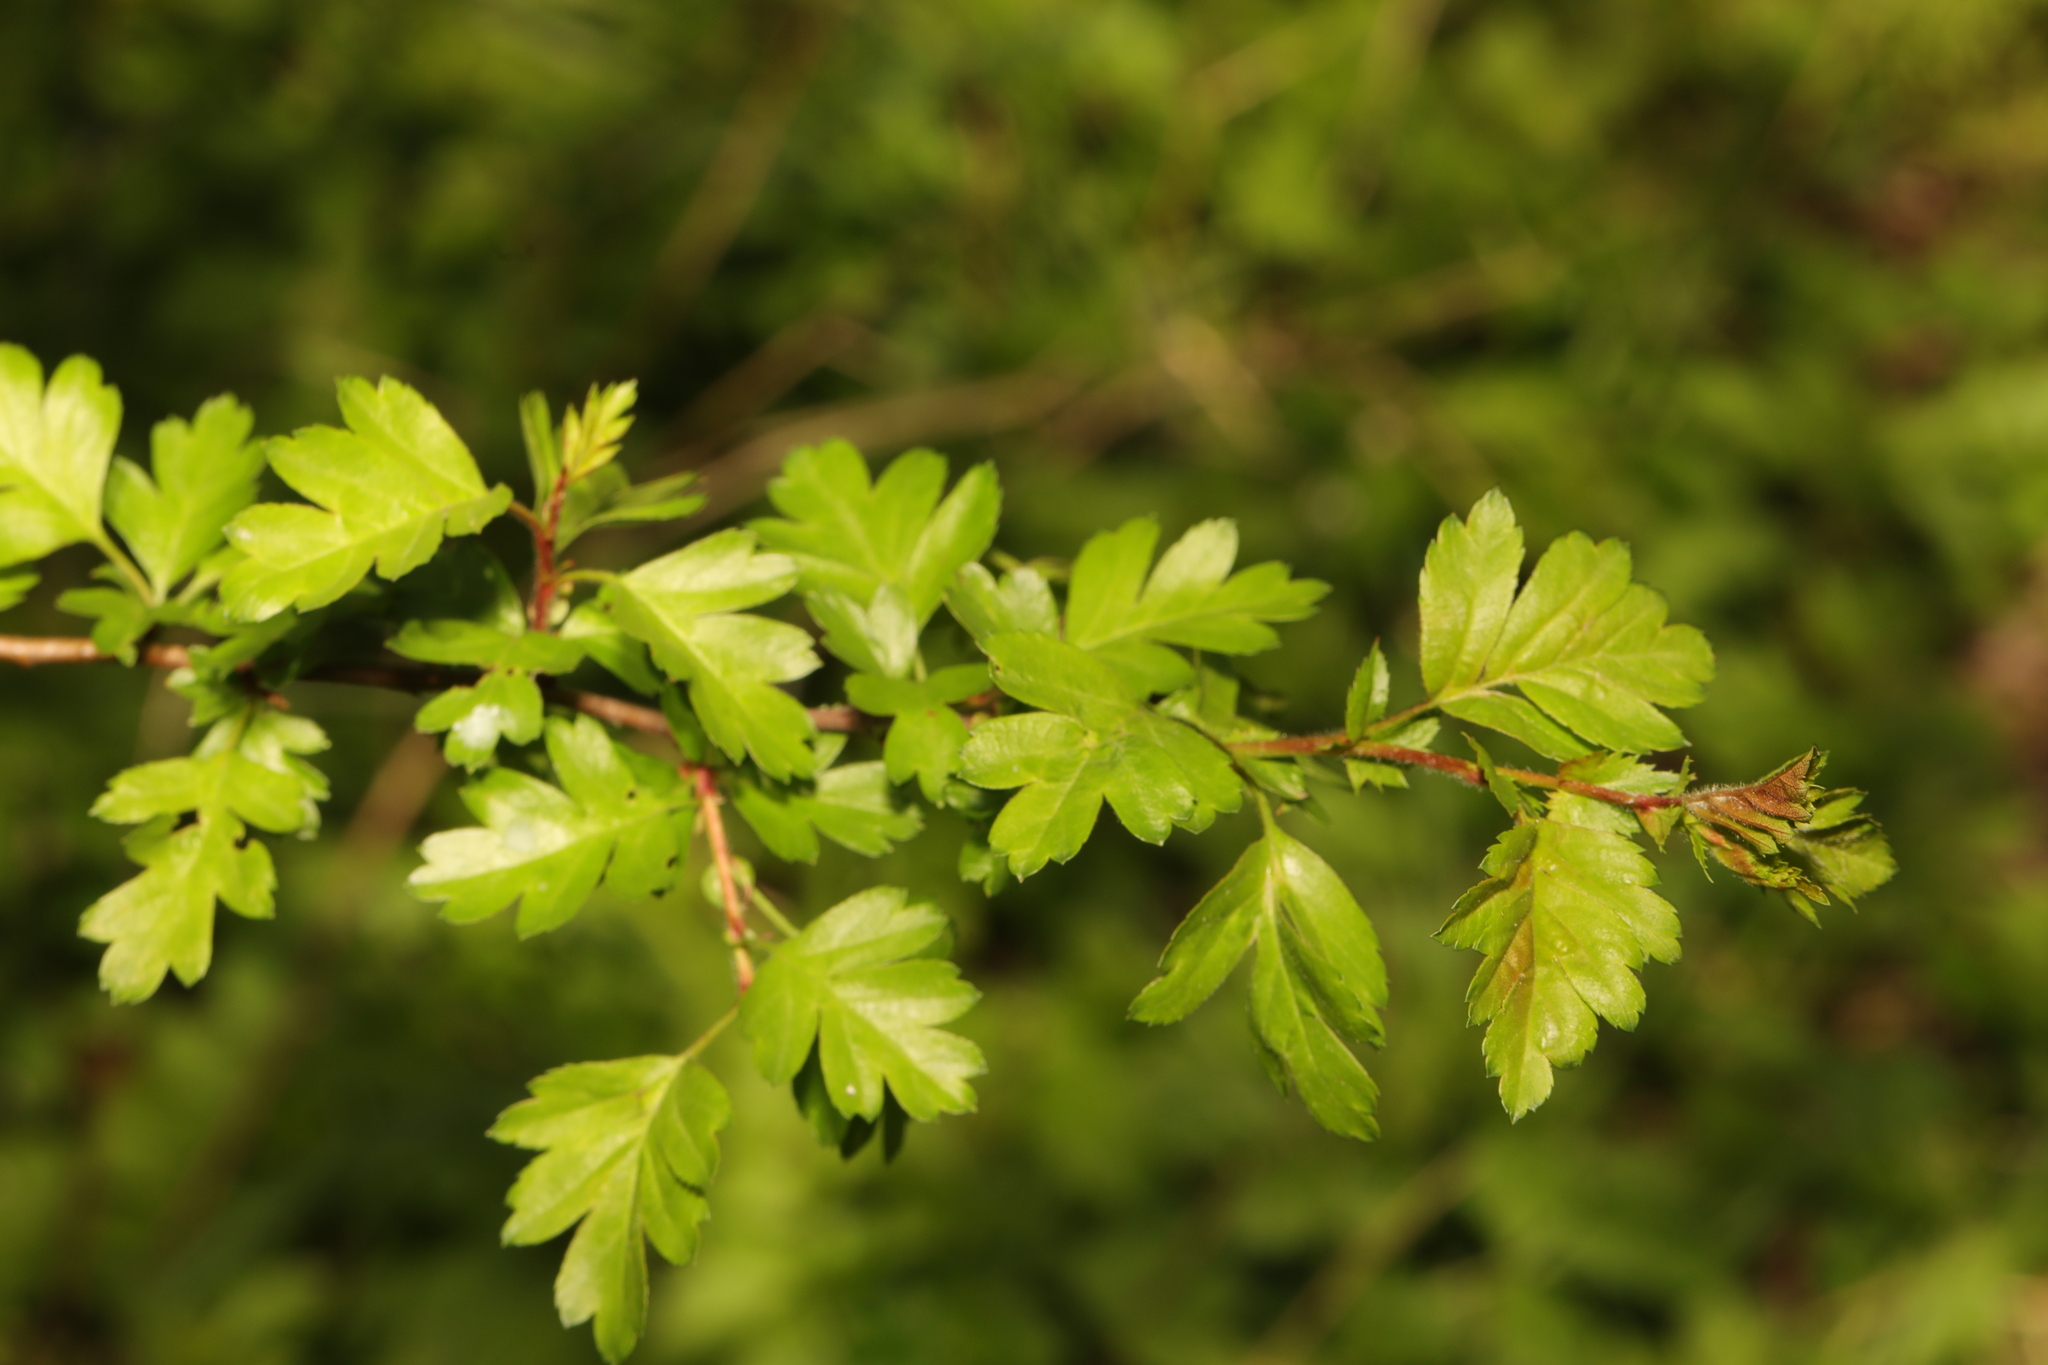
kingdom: Plantae
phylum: Tracheophyta
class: Magnoliopsida
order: Rosales
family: Rosaceae
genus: Crataegus
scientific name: Crataegus monogyna
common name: Hawthorn
